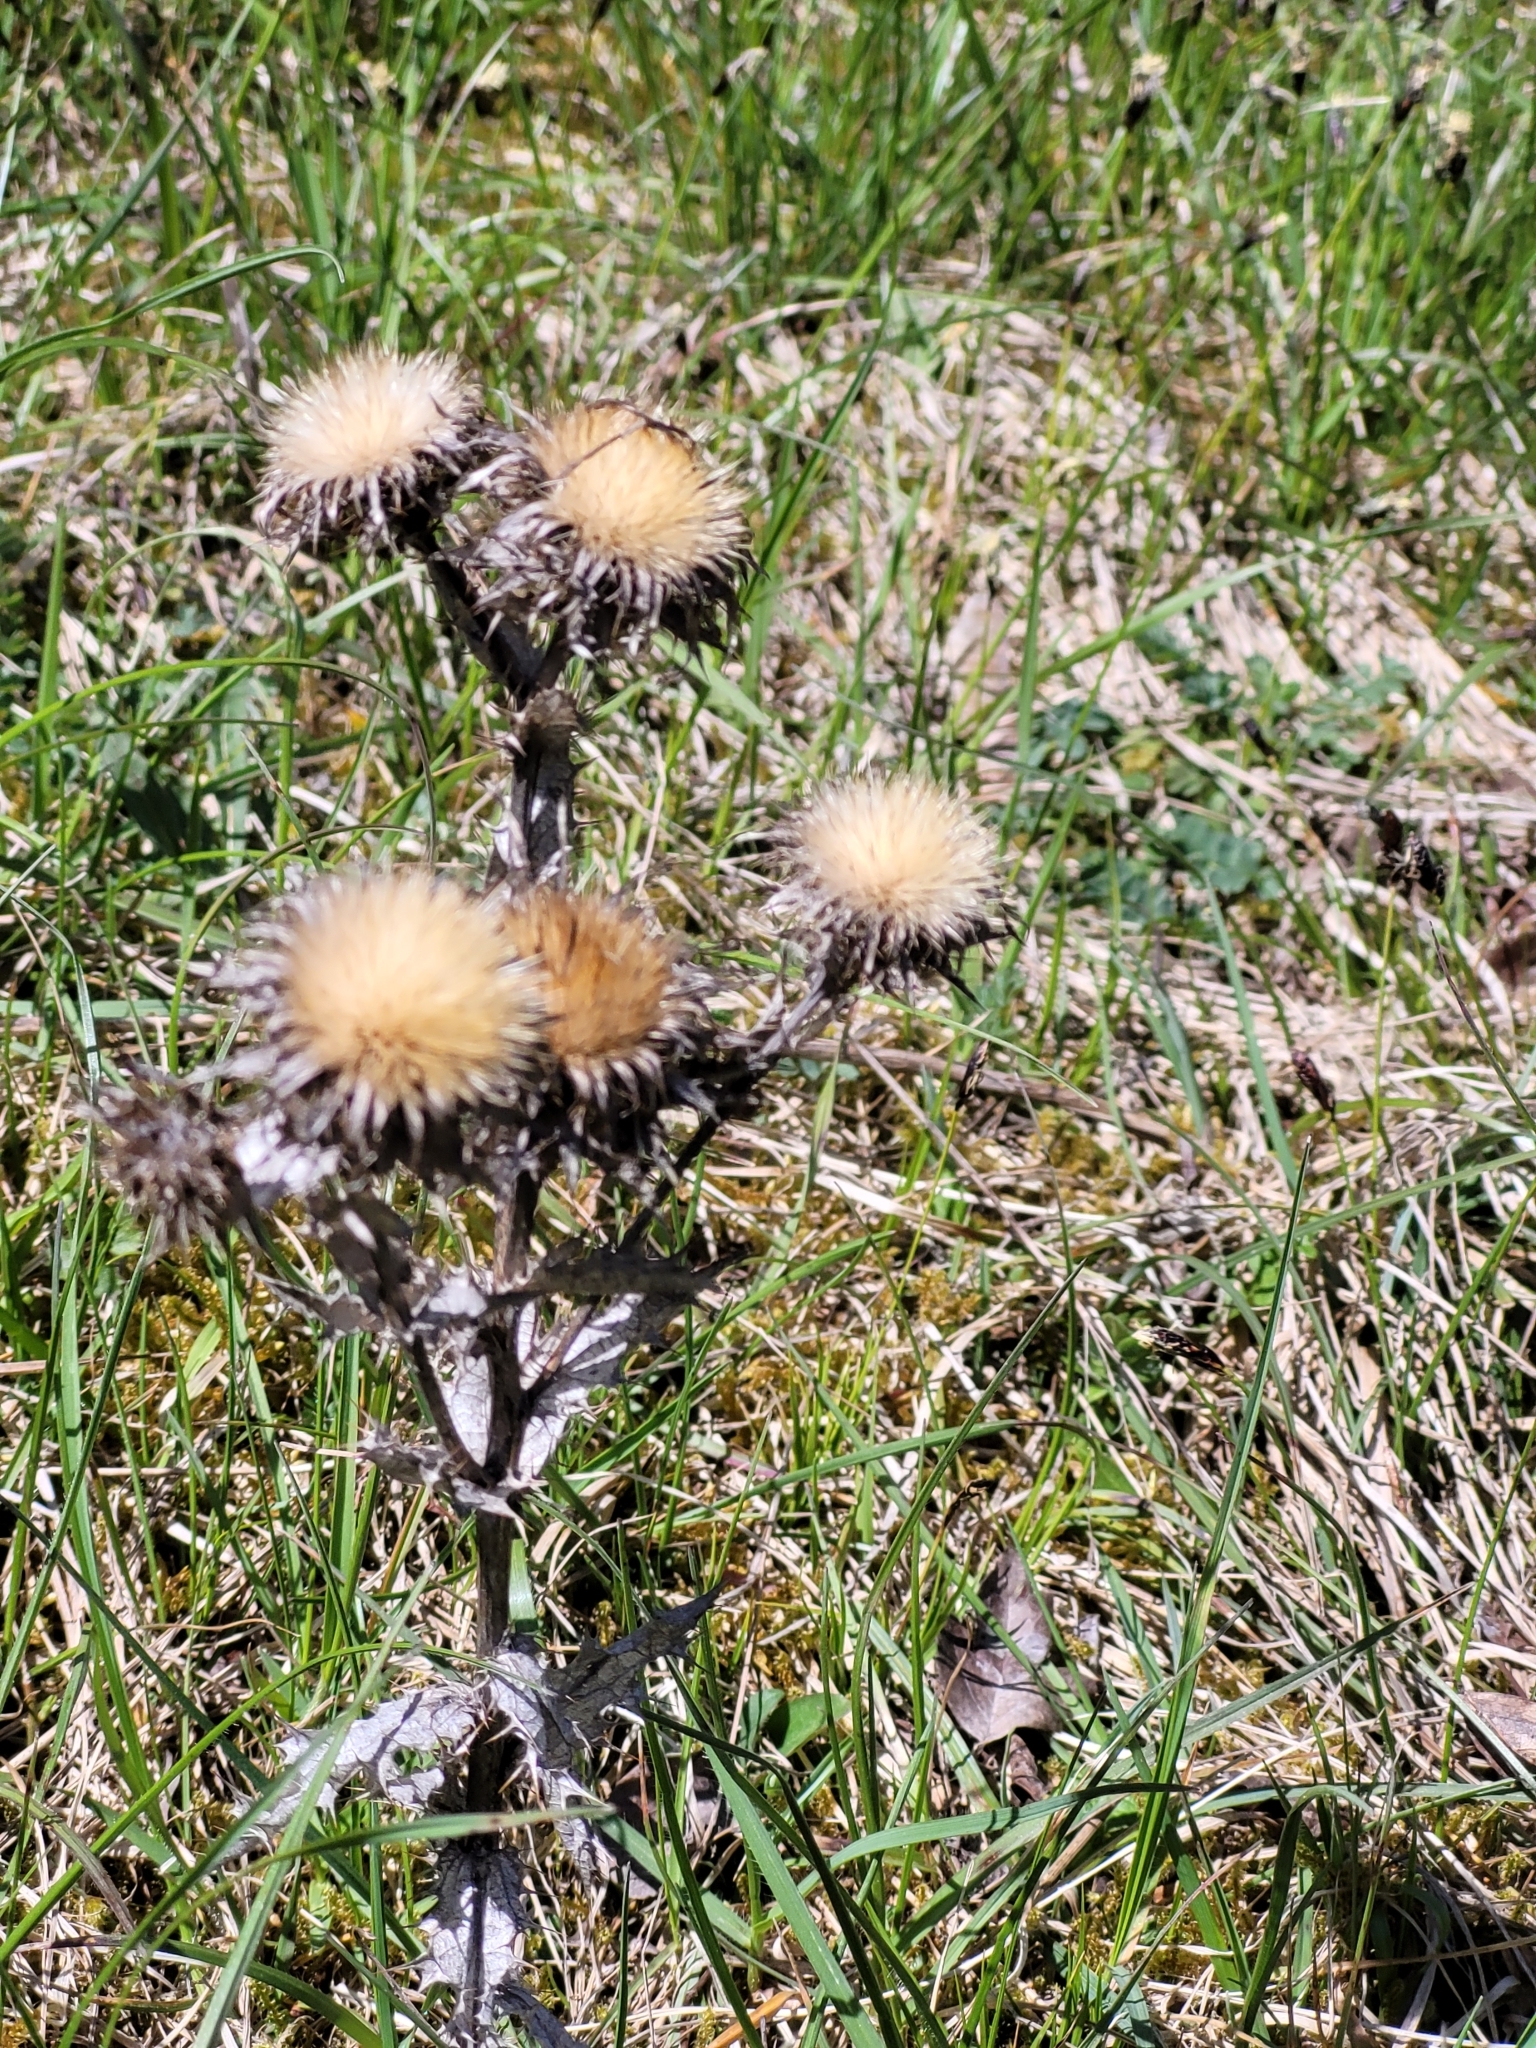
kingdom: Plantae
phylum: Tracheophyta
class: Magnoliopsida
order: Asterales
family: Asteraceae
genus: Carlina
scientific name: Carlina vulgaris
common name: Carline thistle
